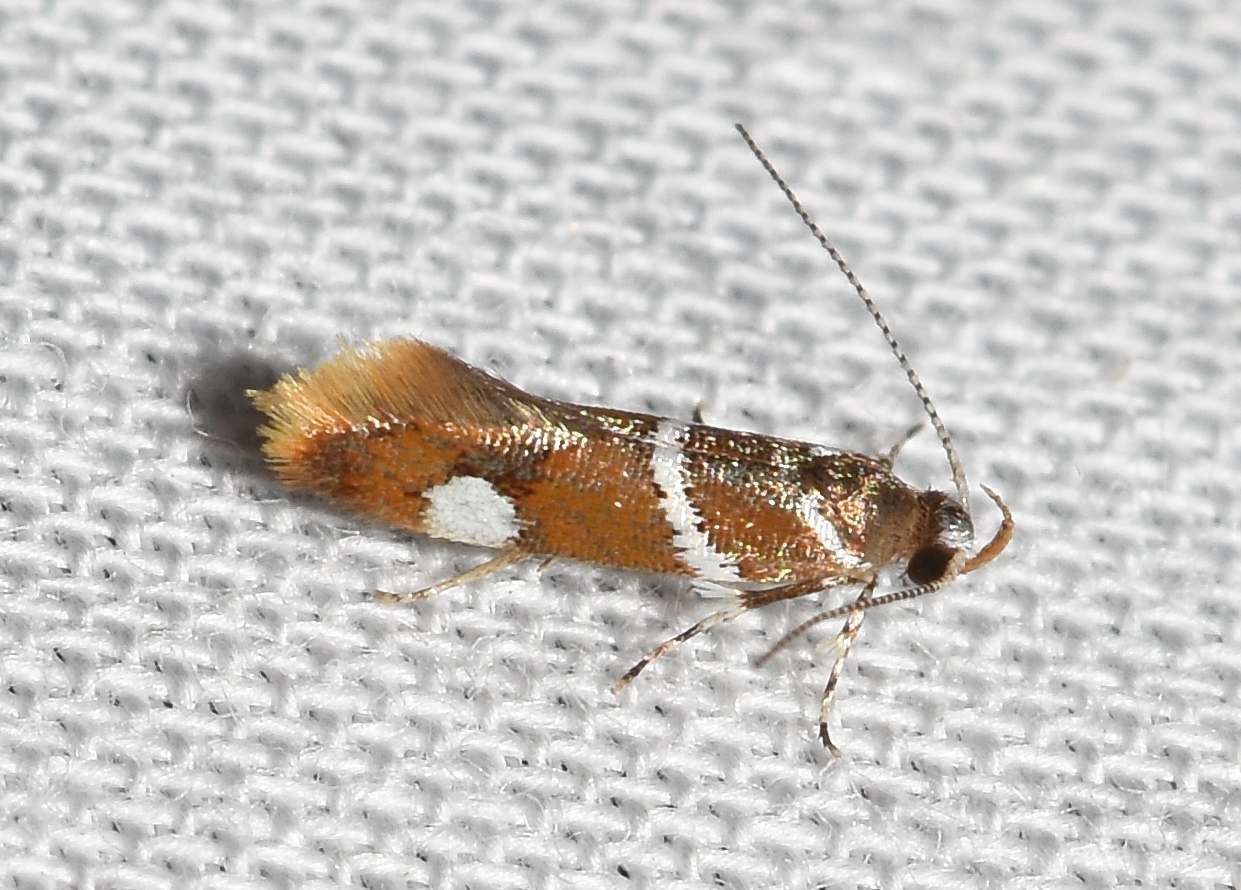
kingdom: Animalia
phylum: Arthropoda
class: Insecta
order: Lepidoptera
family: Oecophoridae
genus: Promalactis
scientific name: Promalactis suzukiella
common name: Moth
